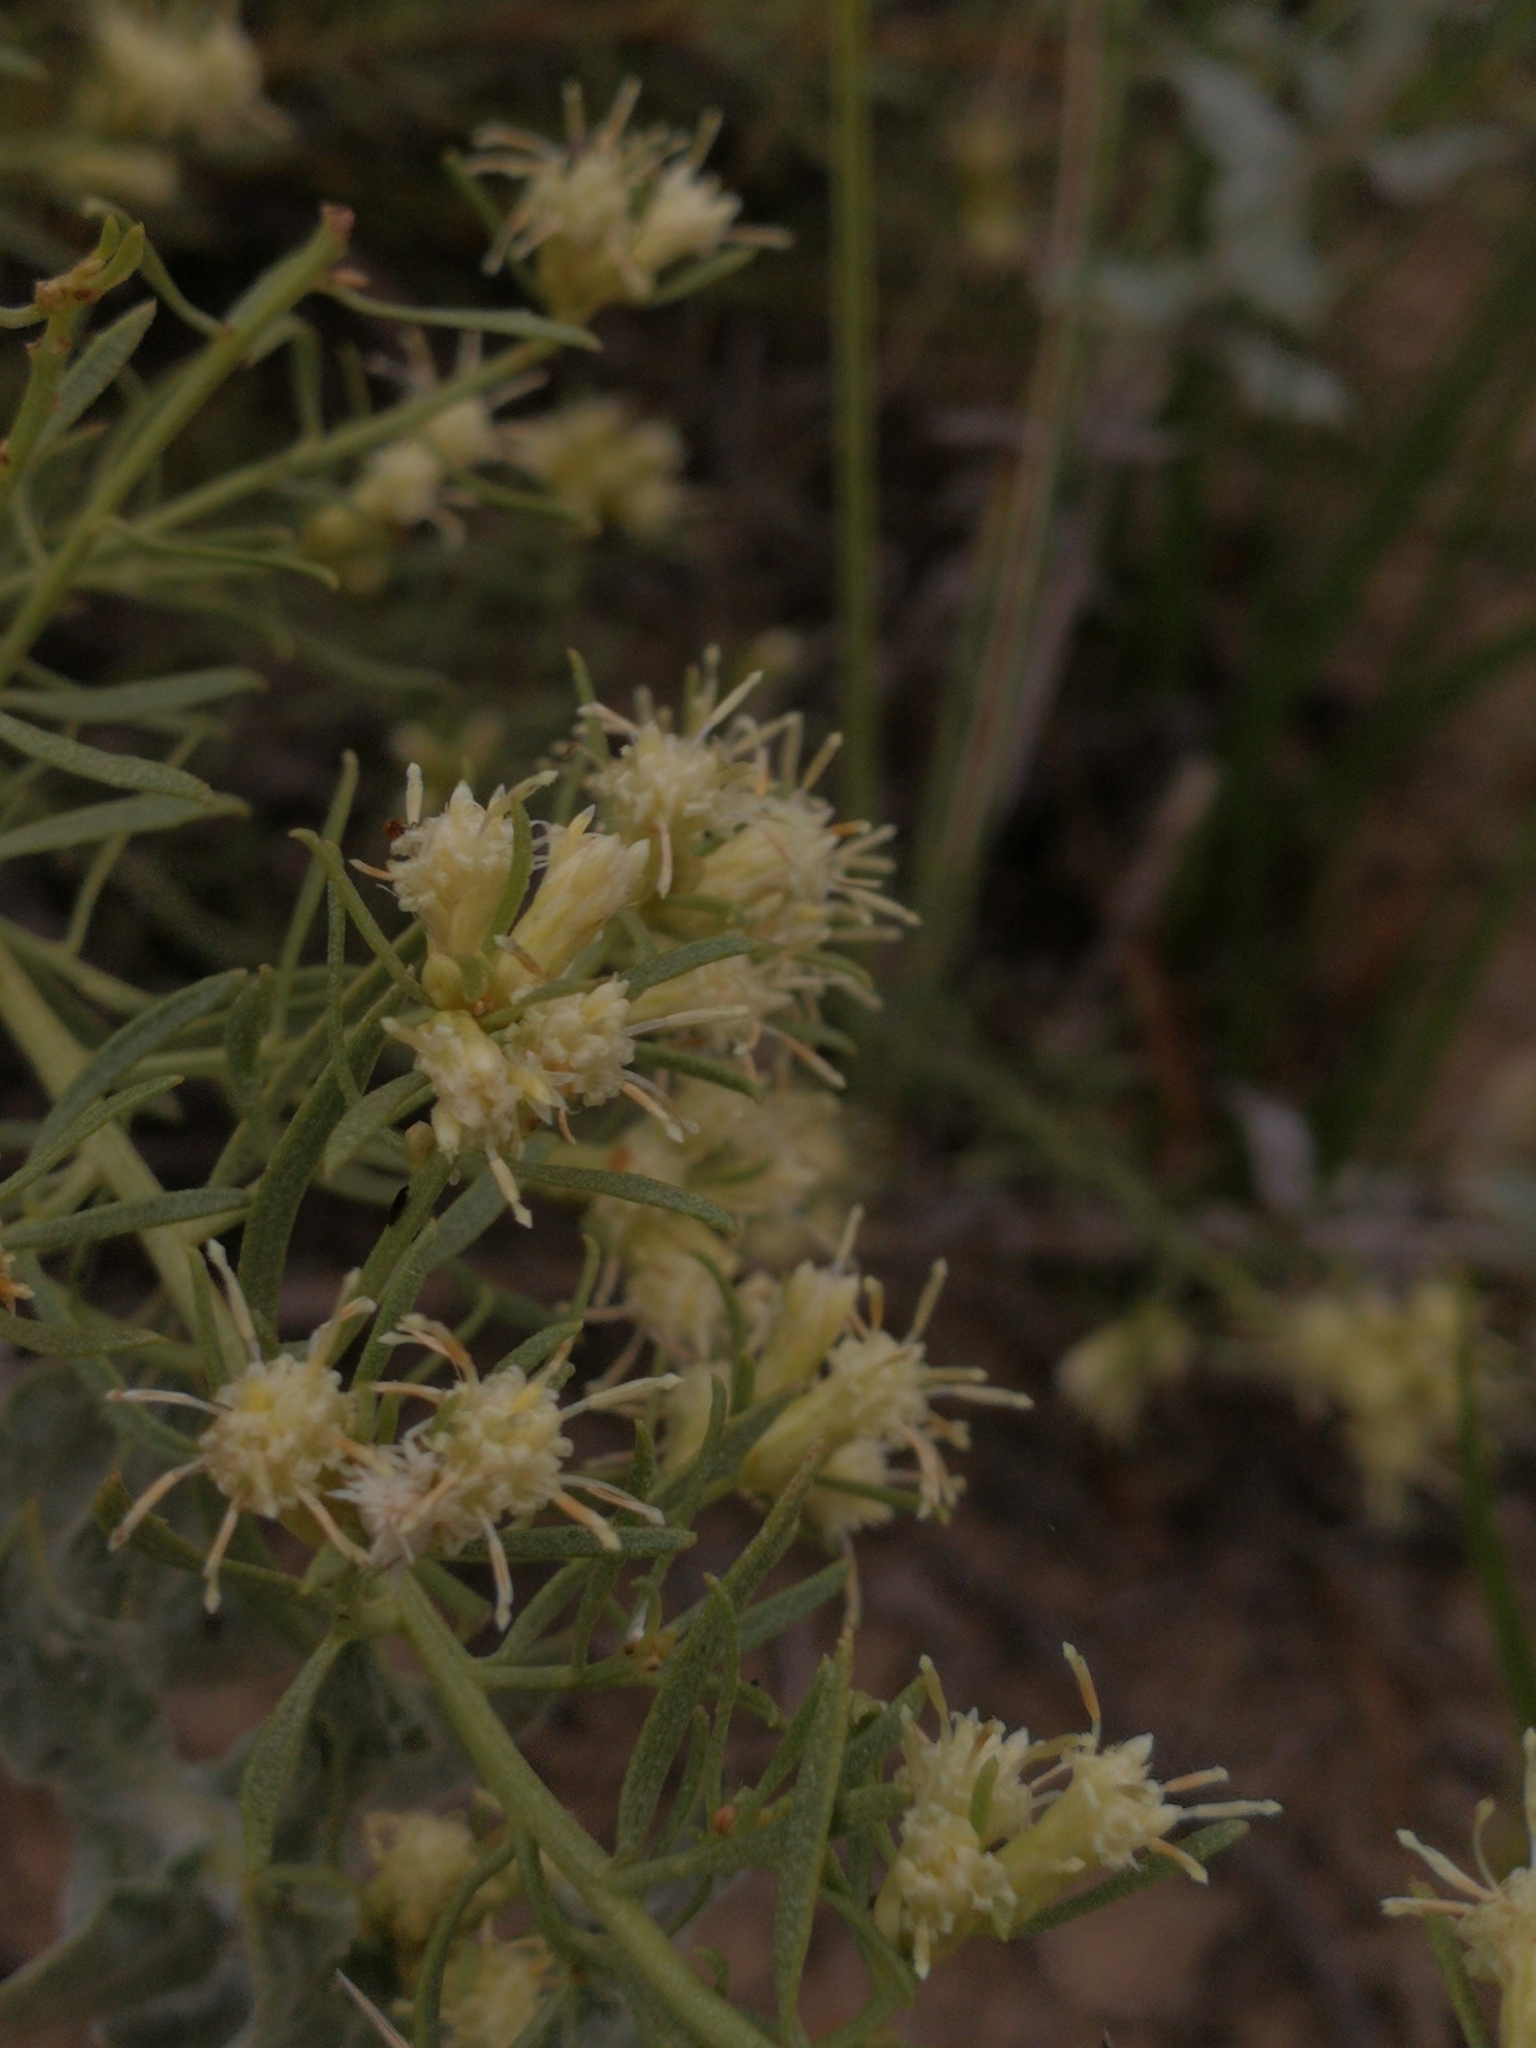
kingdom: Plantae
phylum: Tracheophyta
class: Magnoliopsida
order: Asterales
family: Asteraceae
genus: Baccharis
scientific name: Baccharis linearifolia
